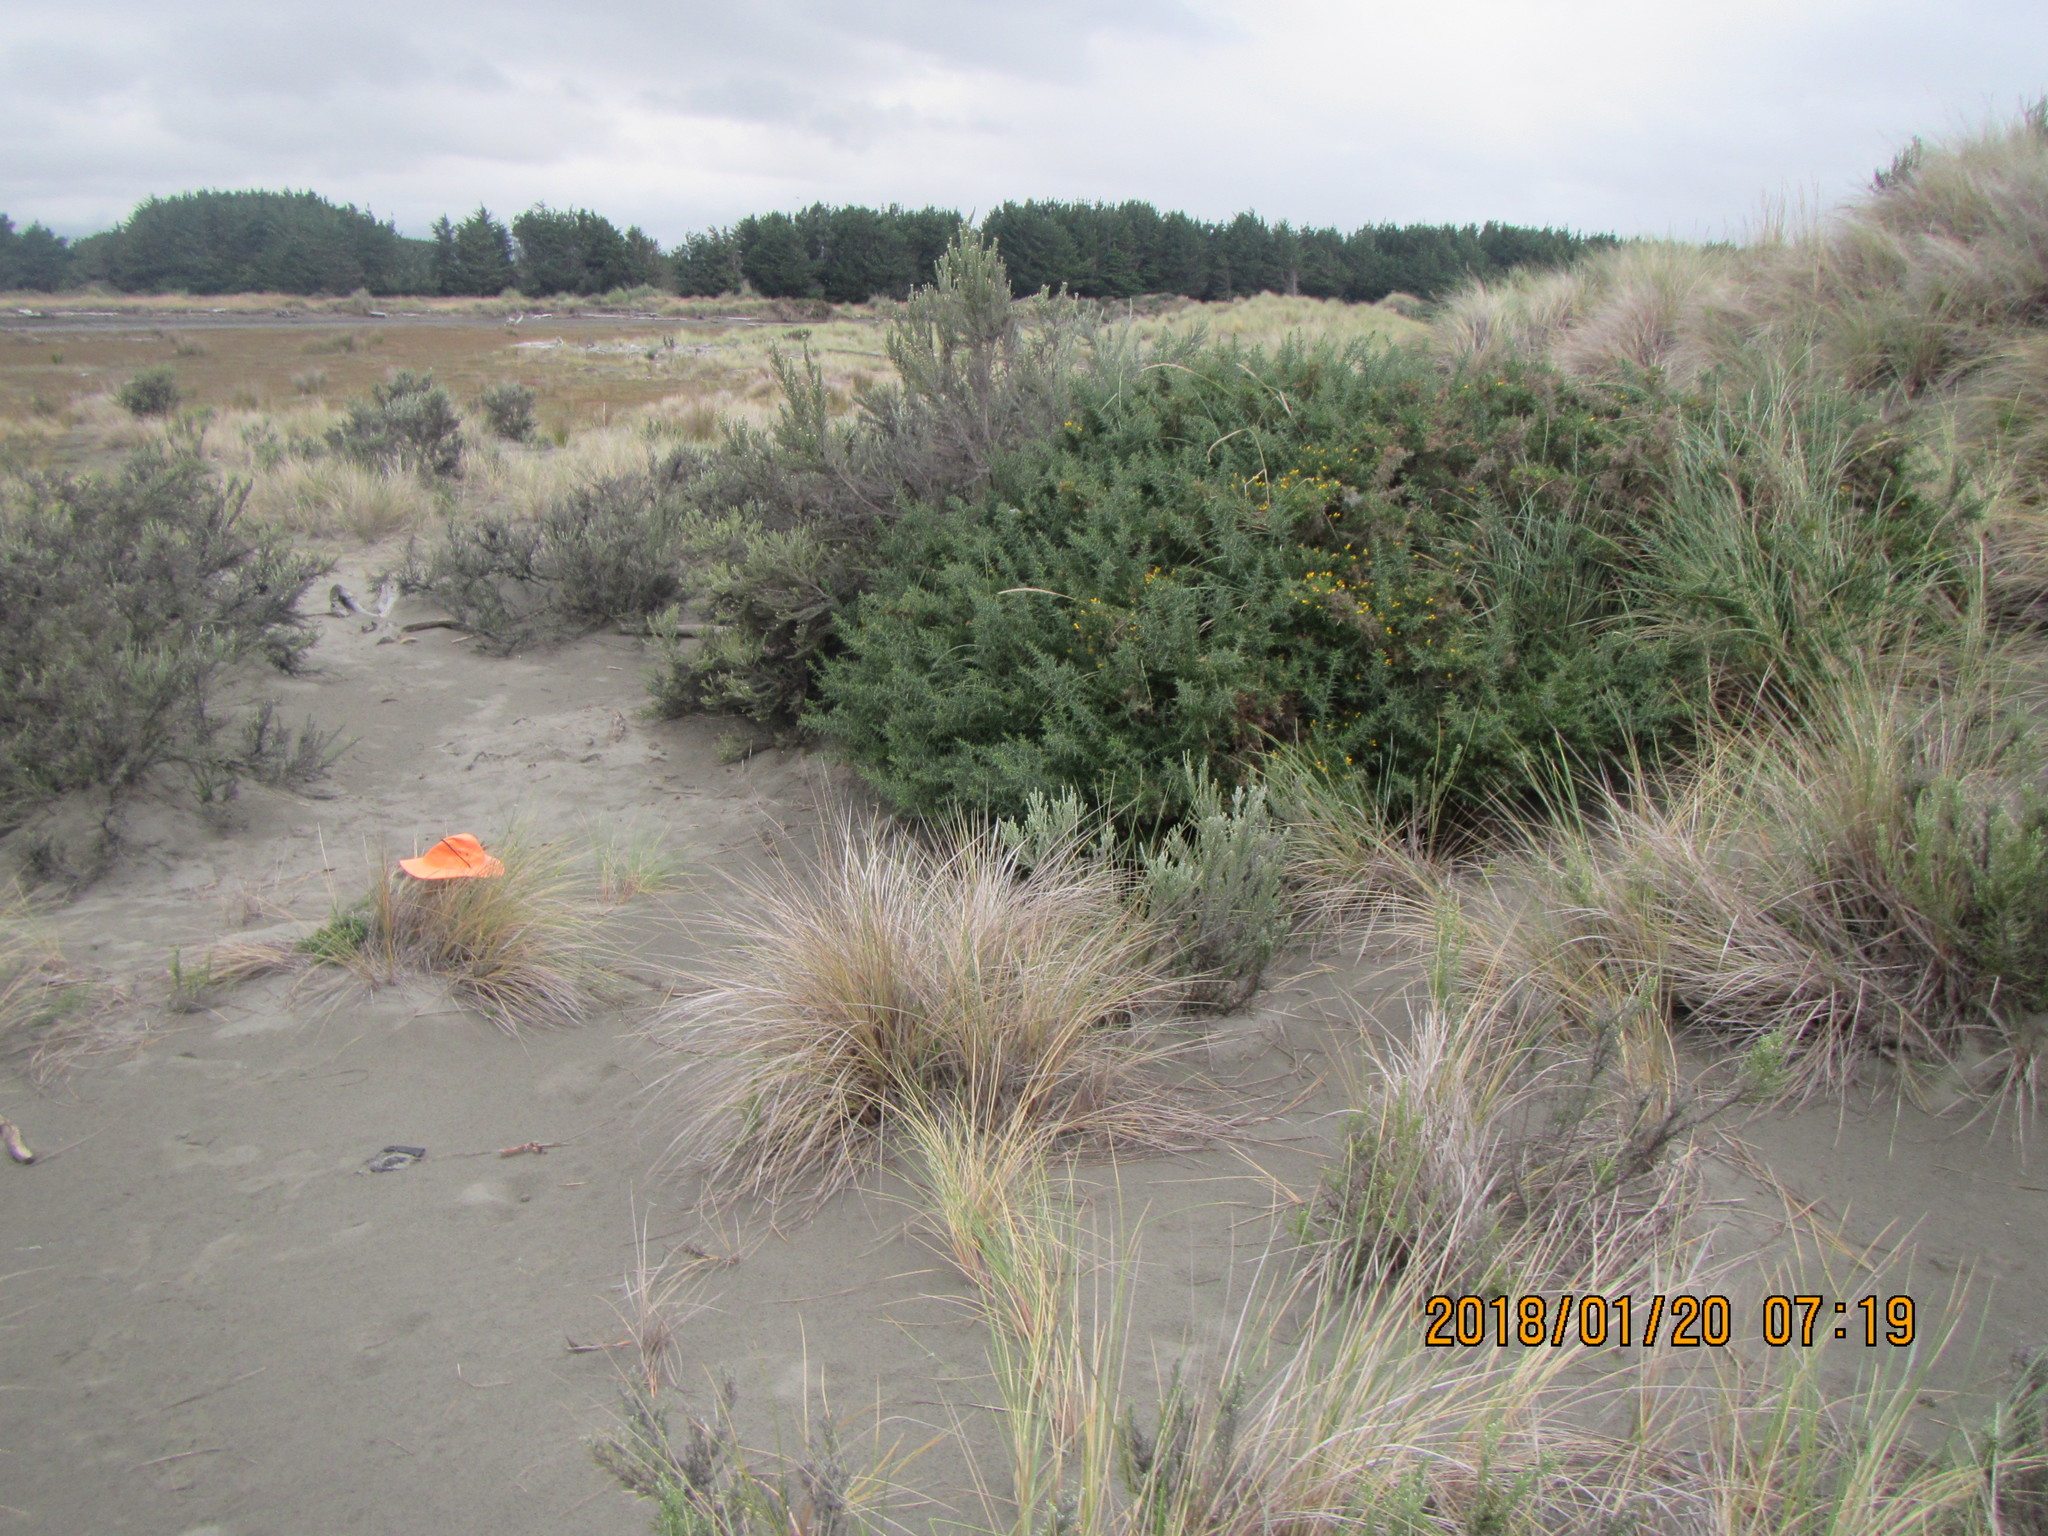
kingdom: Plantae
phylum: Tracheophyta
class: Magnoliopsida
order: Fabales
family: Fabaceae
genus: Ulex
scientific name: Ulex europaeus
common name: Common gorse
